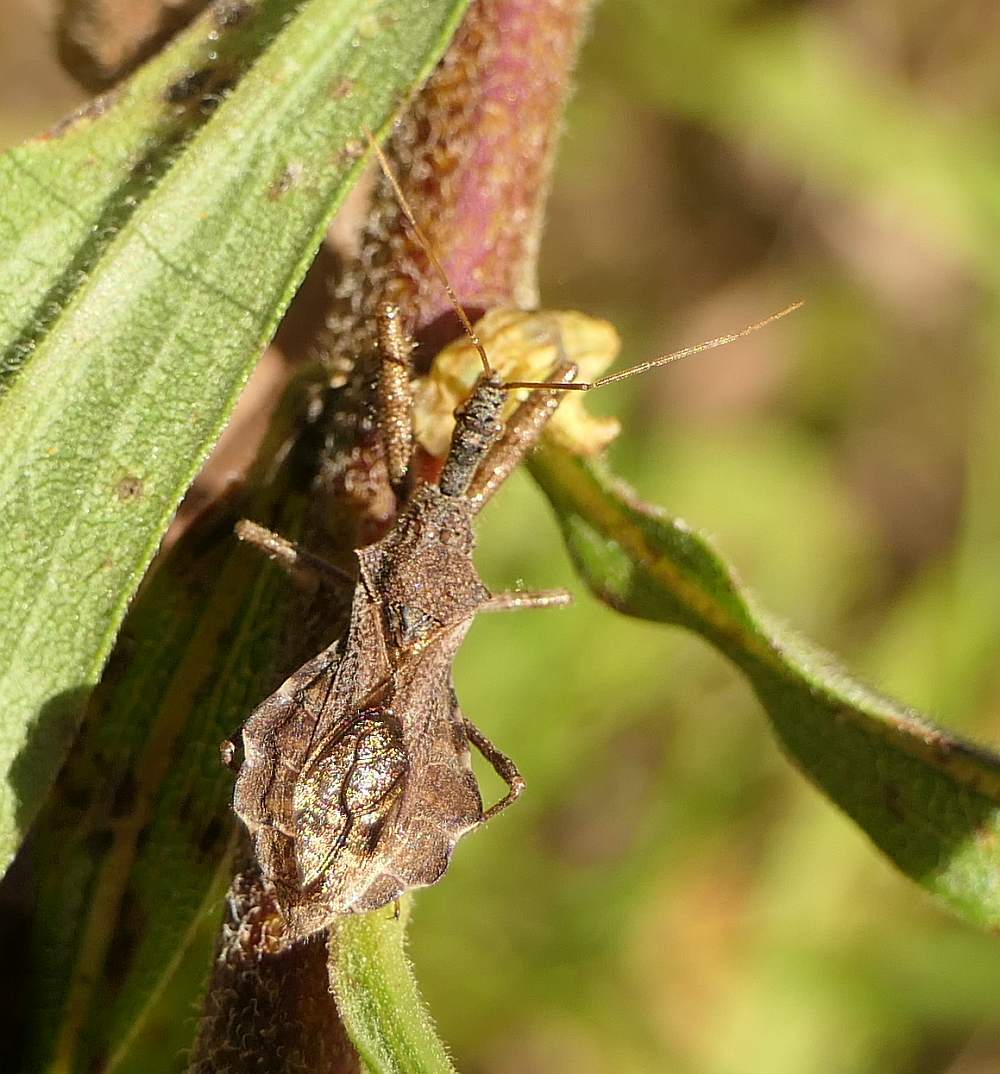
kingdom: Animalia
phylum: Arthropoda
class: Insecta
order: Hemiptera
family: Reduviidae
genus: Sinea
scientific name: Sinea diadema
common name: Spined assassin bug
